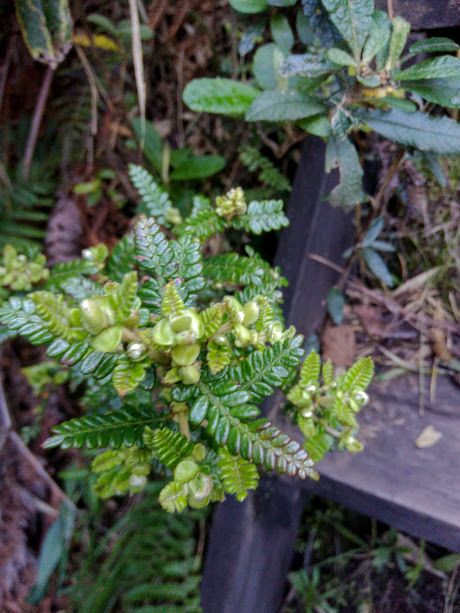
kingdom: Plantae
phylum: Tracheophyta
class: Magnoliopsida
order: Oxalidales
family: Cunoniaceae
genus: Weinmannia
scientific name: Weinmannia tomentosa
